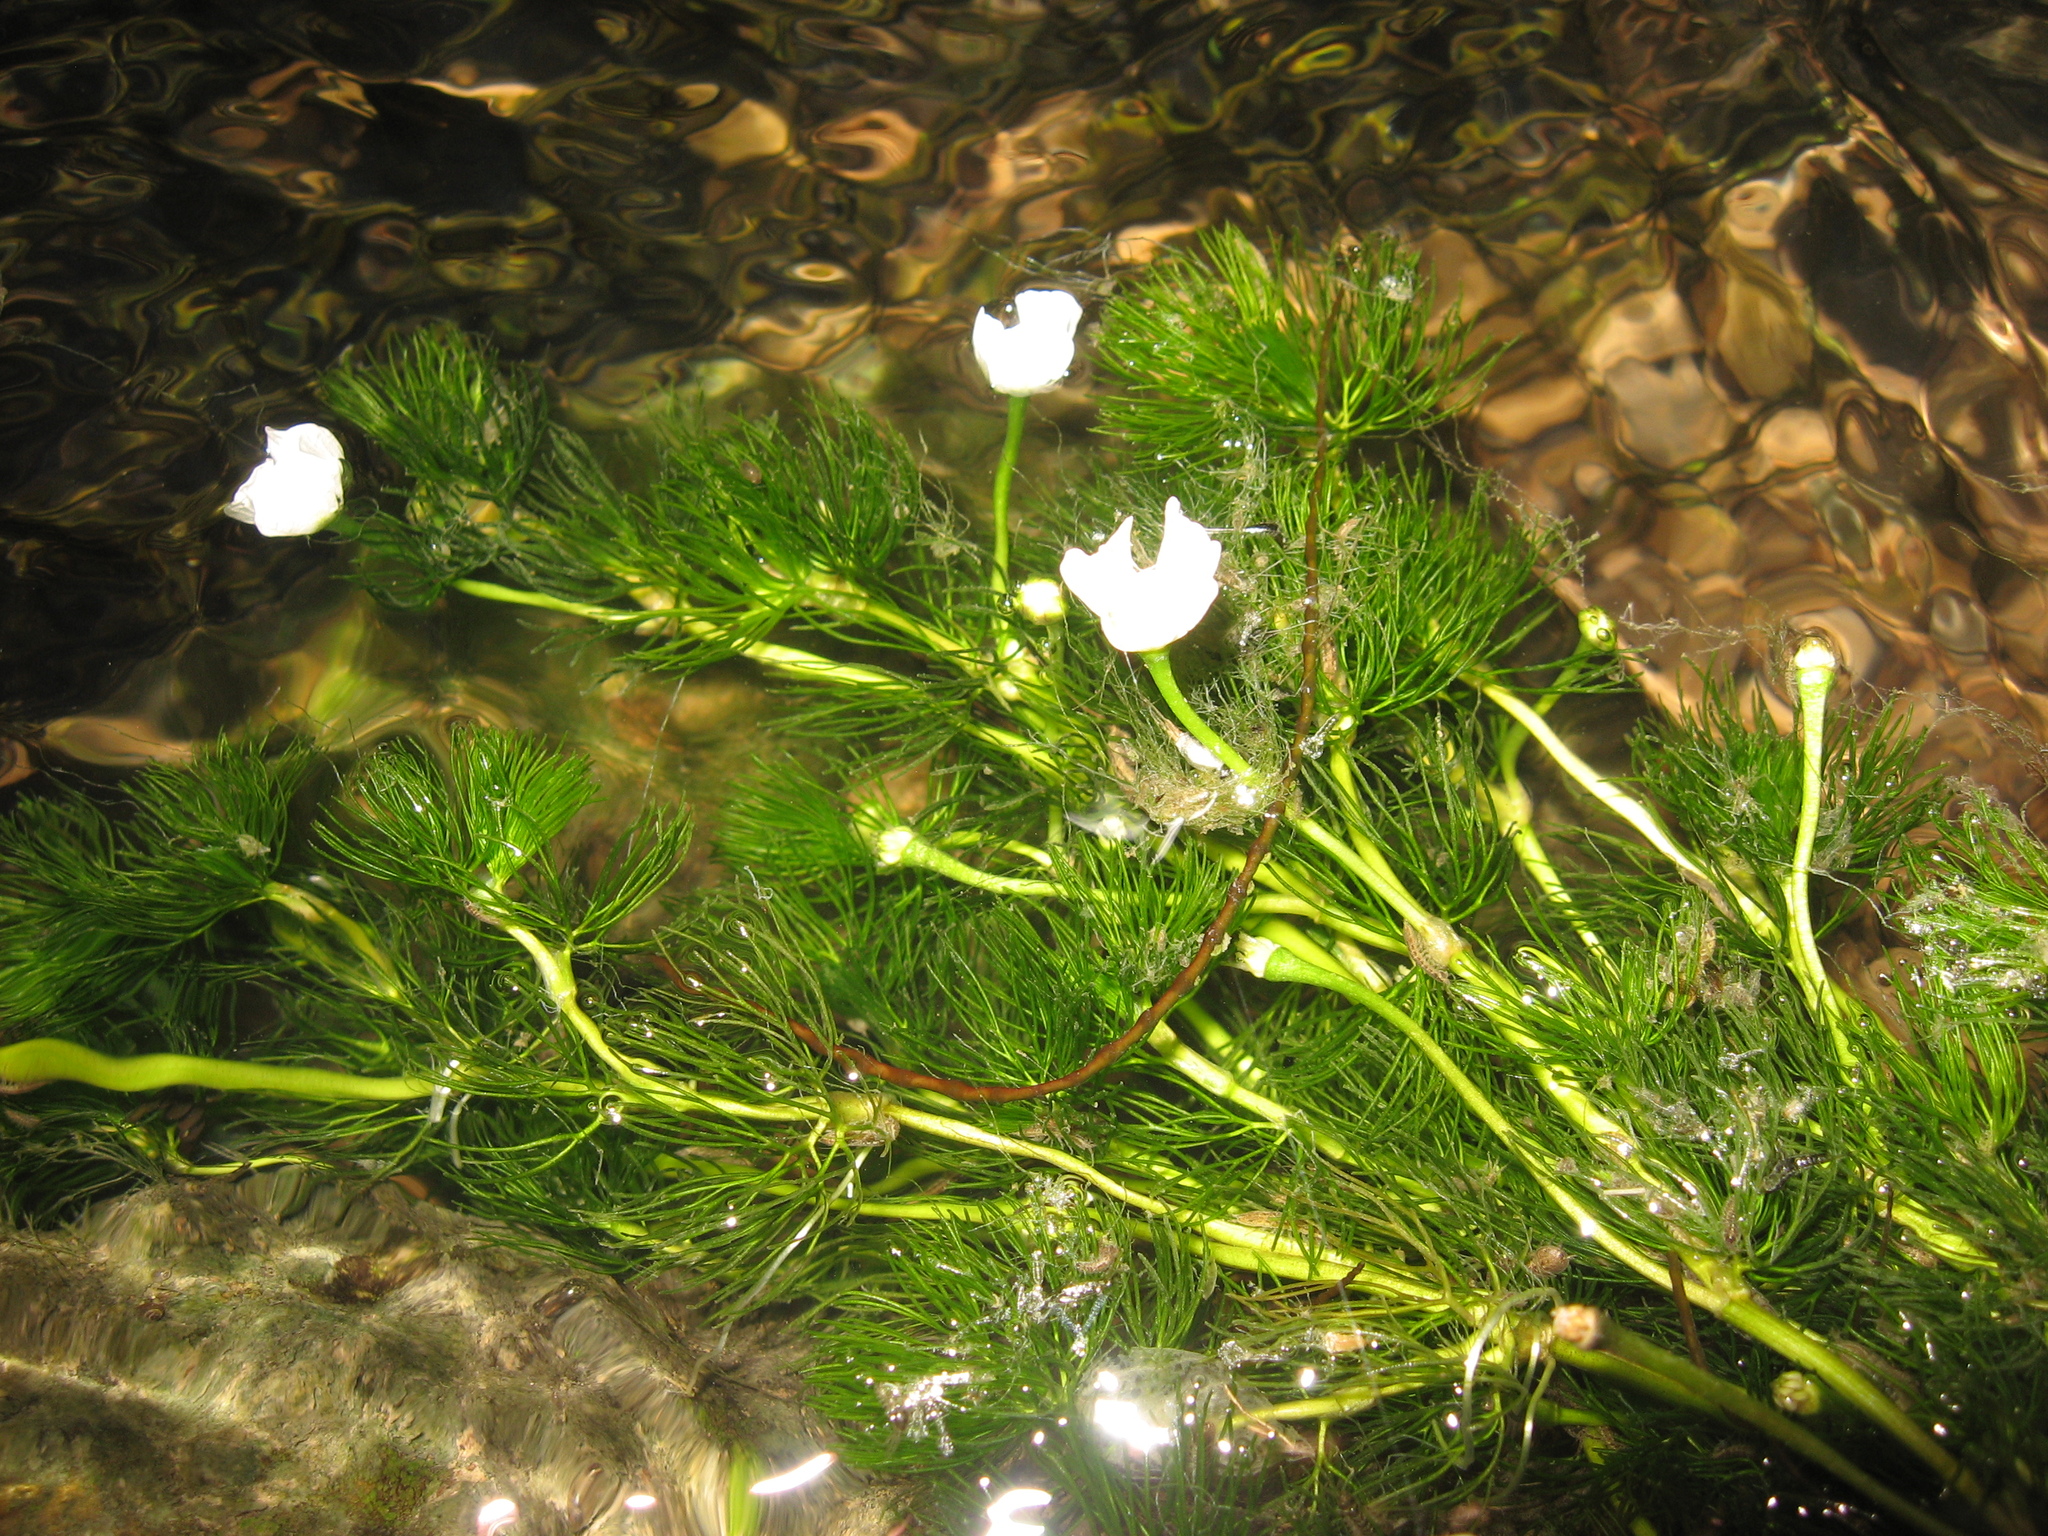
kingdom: Plantae
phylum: Tracheophyta
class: Magnoliopsida
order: Ranunculales
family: Ranunculaceae
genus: Ranunculus
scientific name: Ranunculus longirostris
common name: Curly white water-crowfoot
